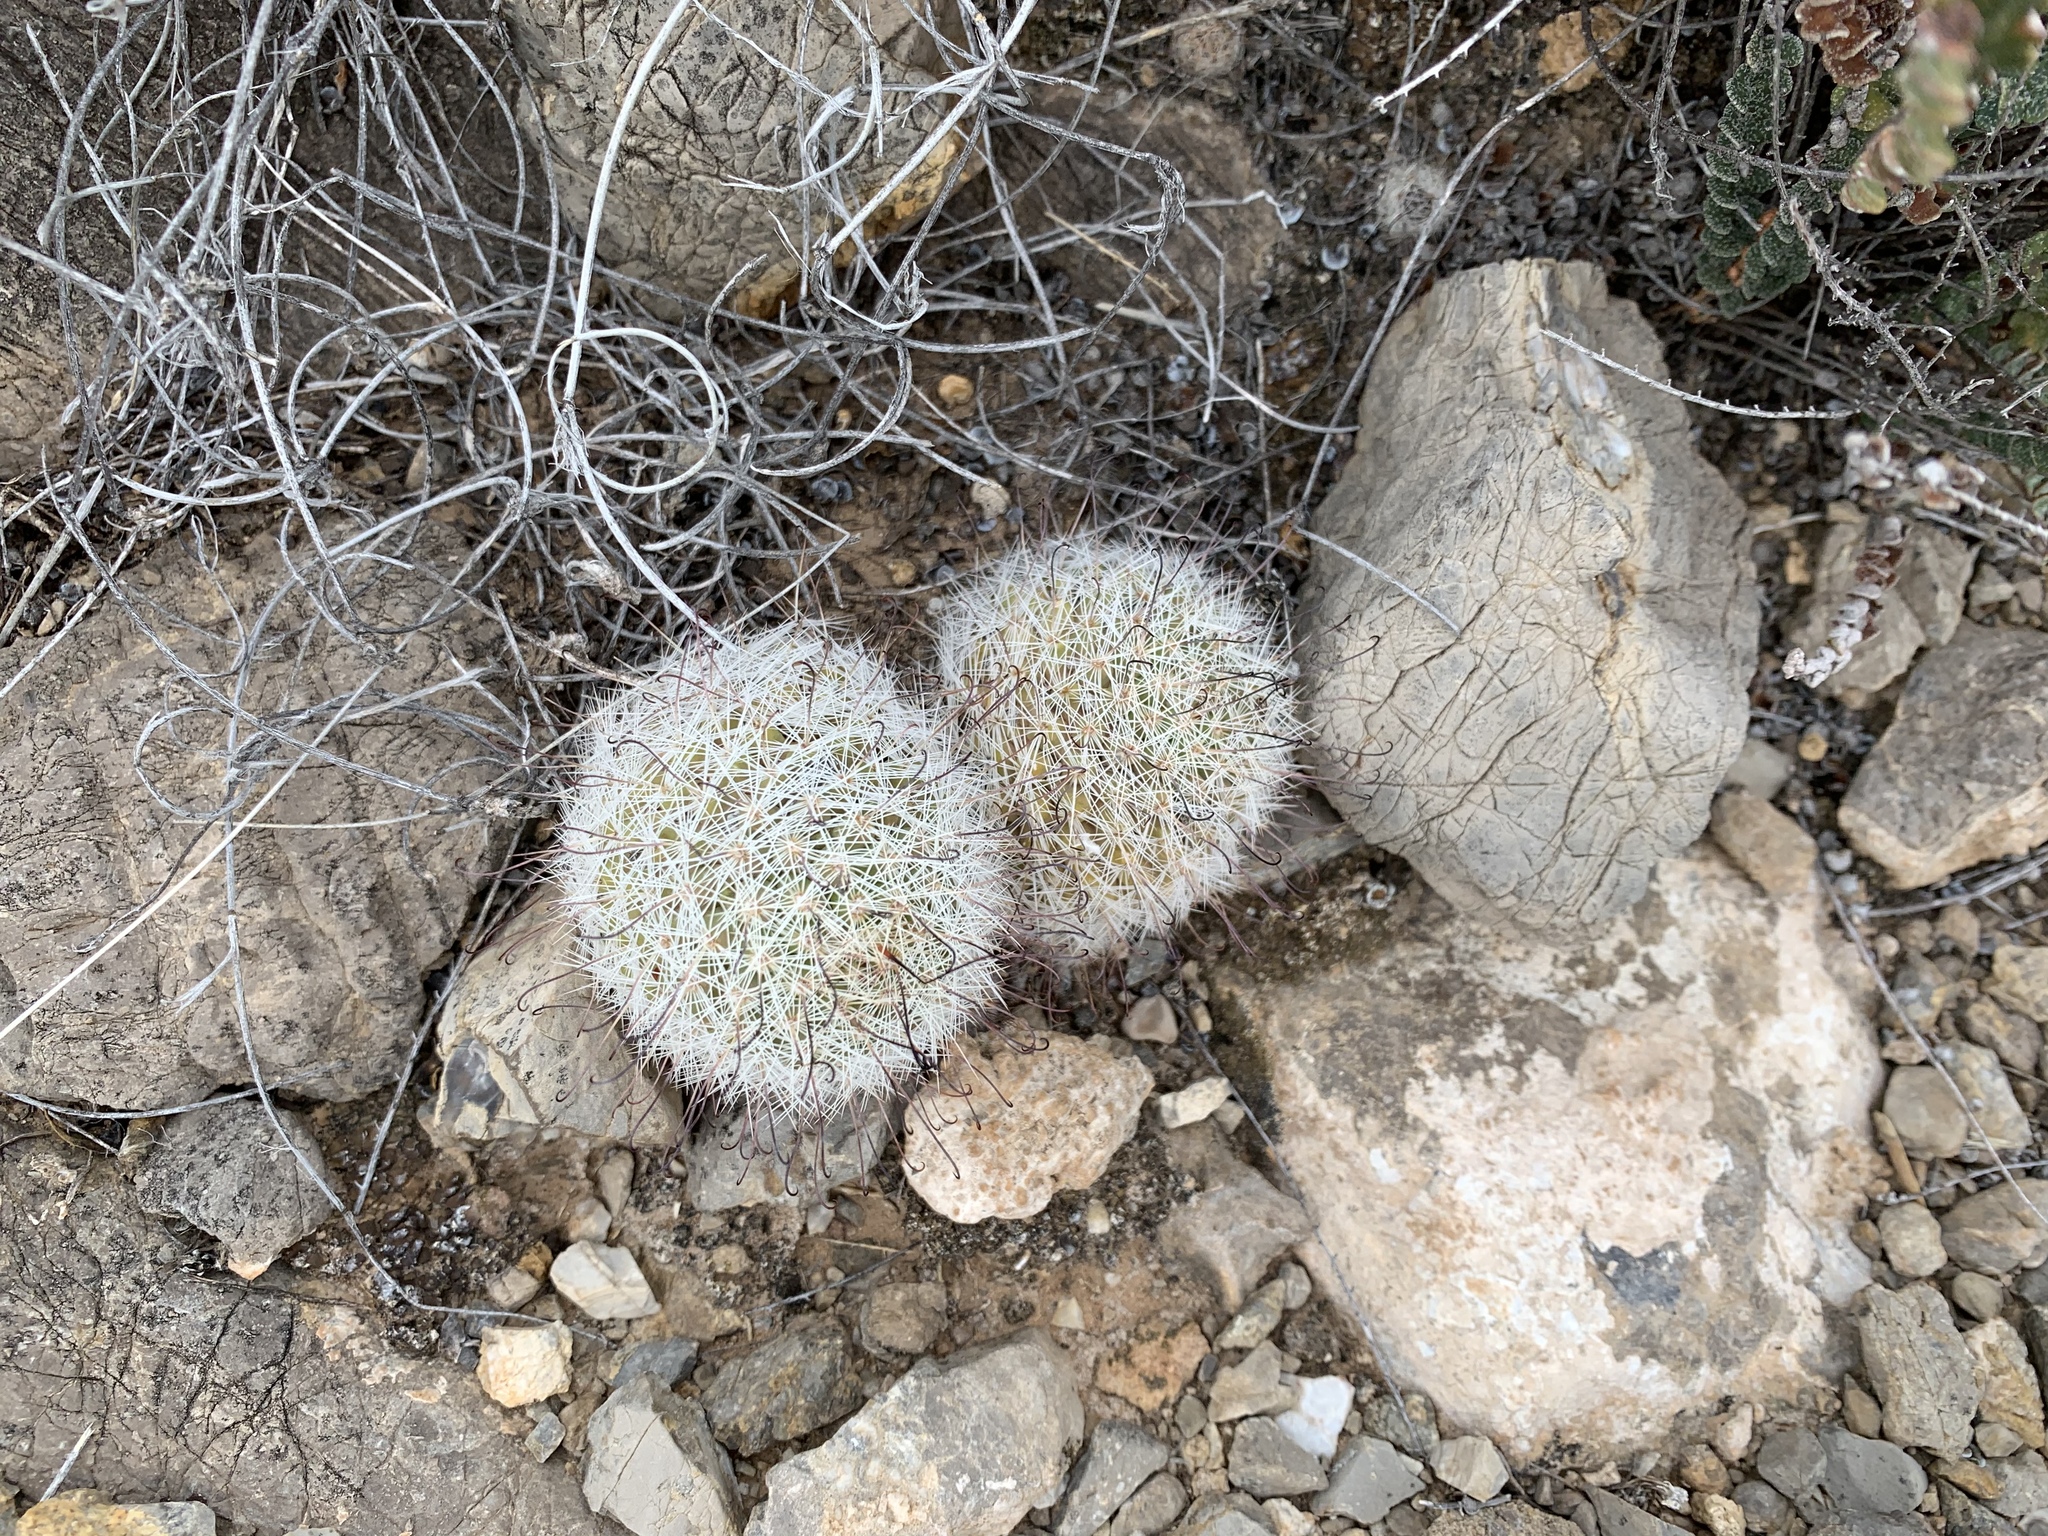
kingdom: Plantae
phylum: Tracheophyta
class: Magnoliopsida
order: Caryophyllales
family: Cactaceae
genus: Cochemiea
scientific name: Cochemiea grahamii
